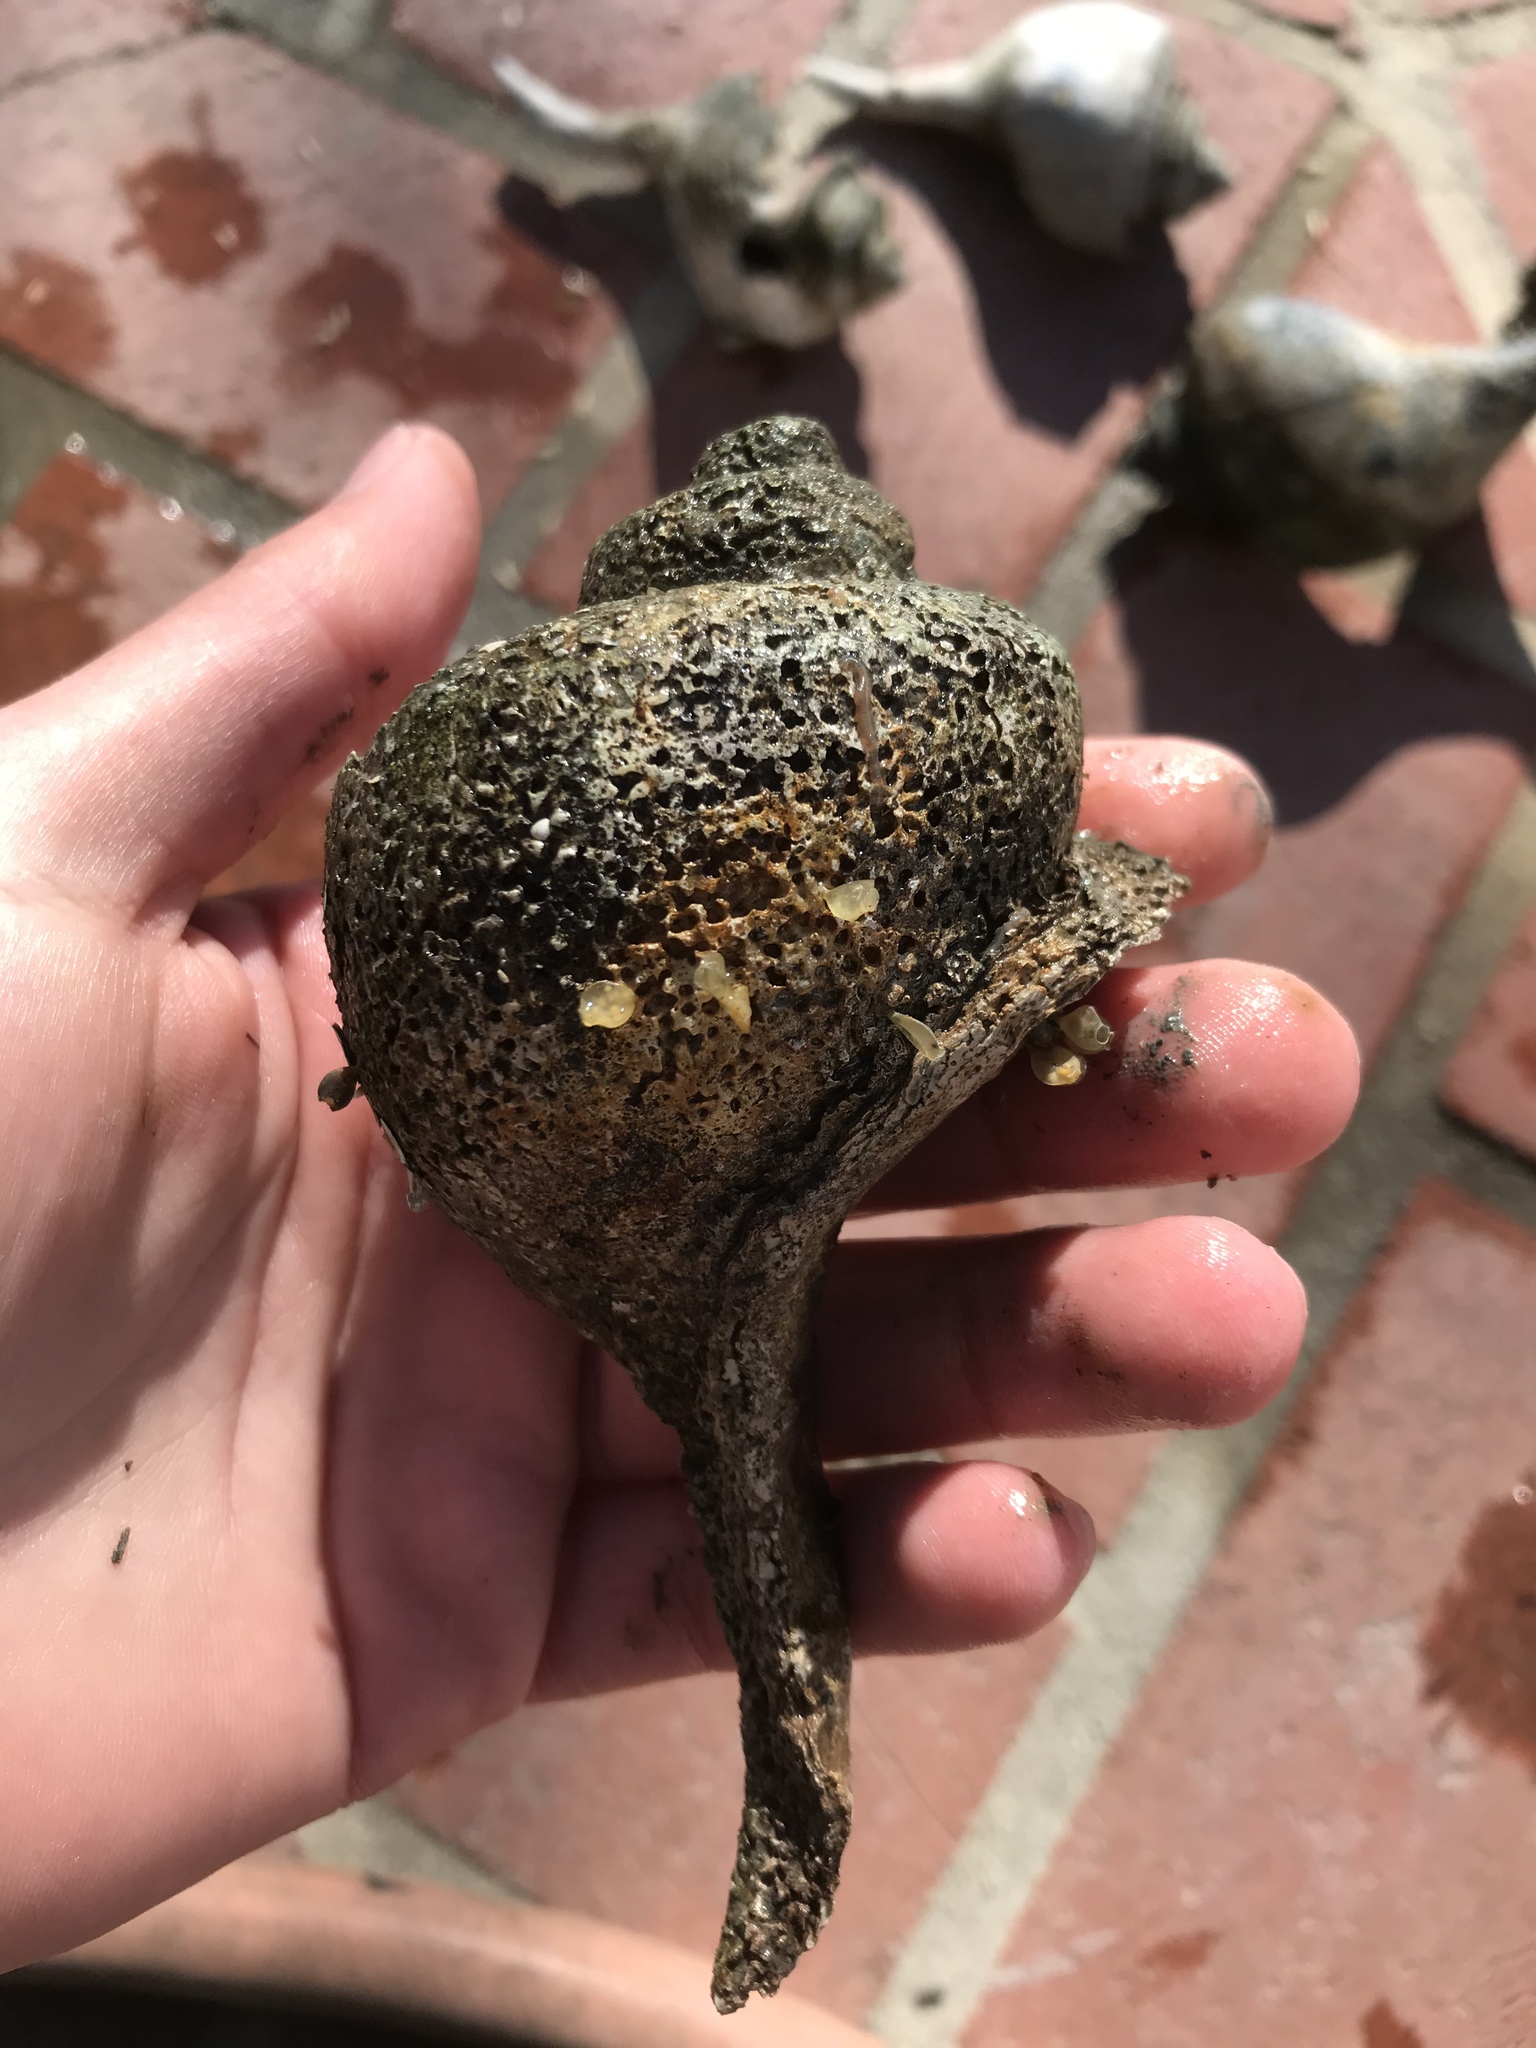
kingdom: Animalia
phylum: Mollusca
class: Gastropoda
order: Neogastropoda
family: Busyconidae
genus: Busycotypus
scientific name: Busycotypus canaliculatus
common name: Channeled whelk
